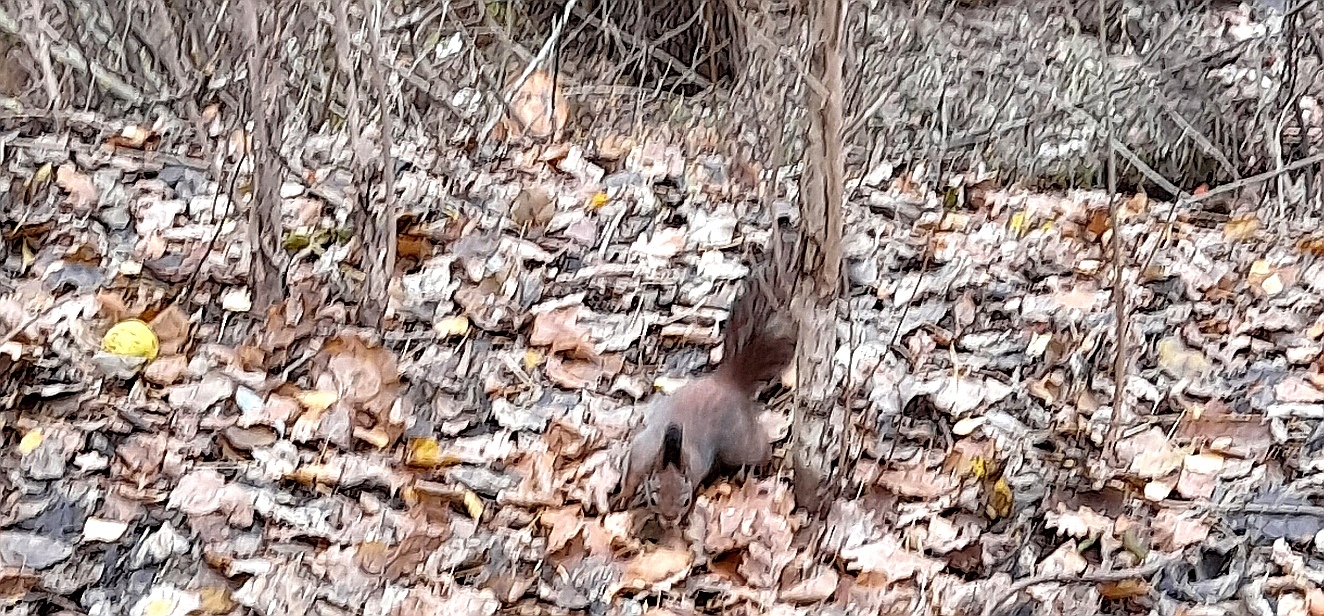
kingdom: Animalia
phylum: Chordata
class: Mammalia
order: Rodentia
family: Sciuridae
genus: Sciurus
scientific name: Sciurus vulgaris
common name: Eurasian red squirrel
